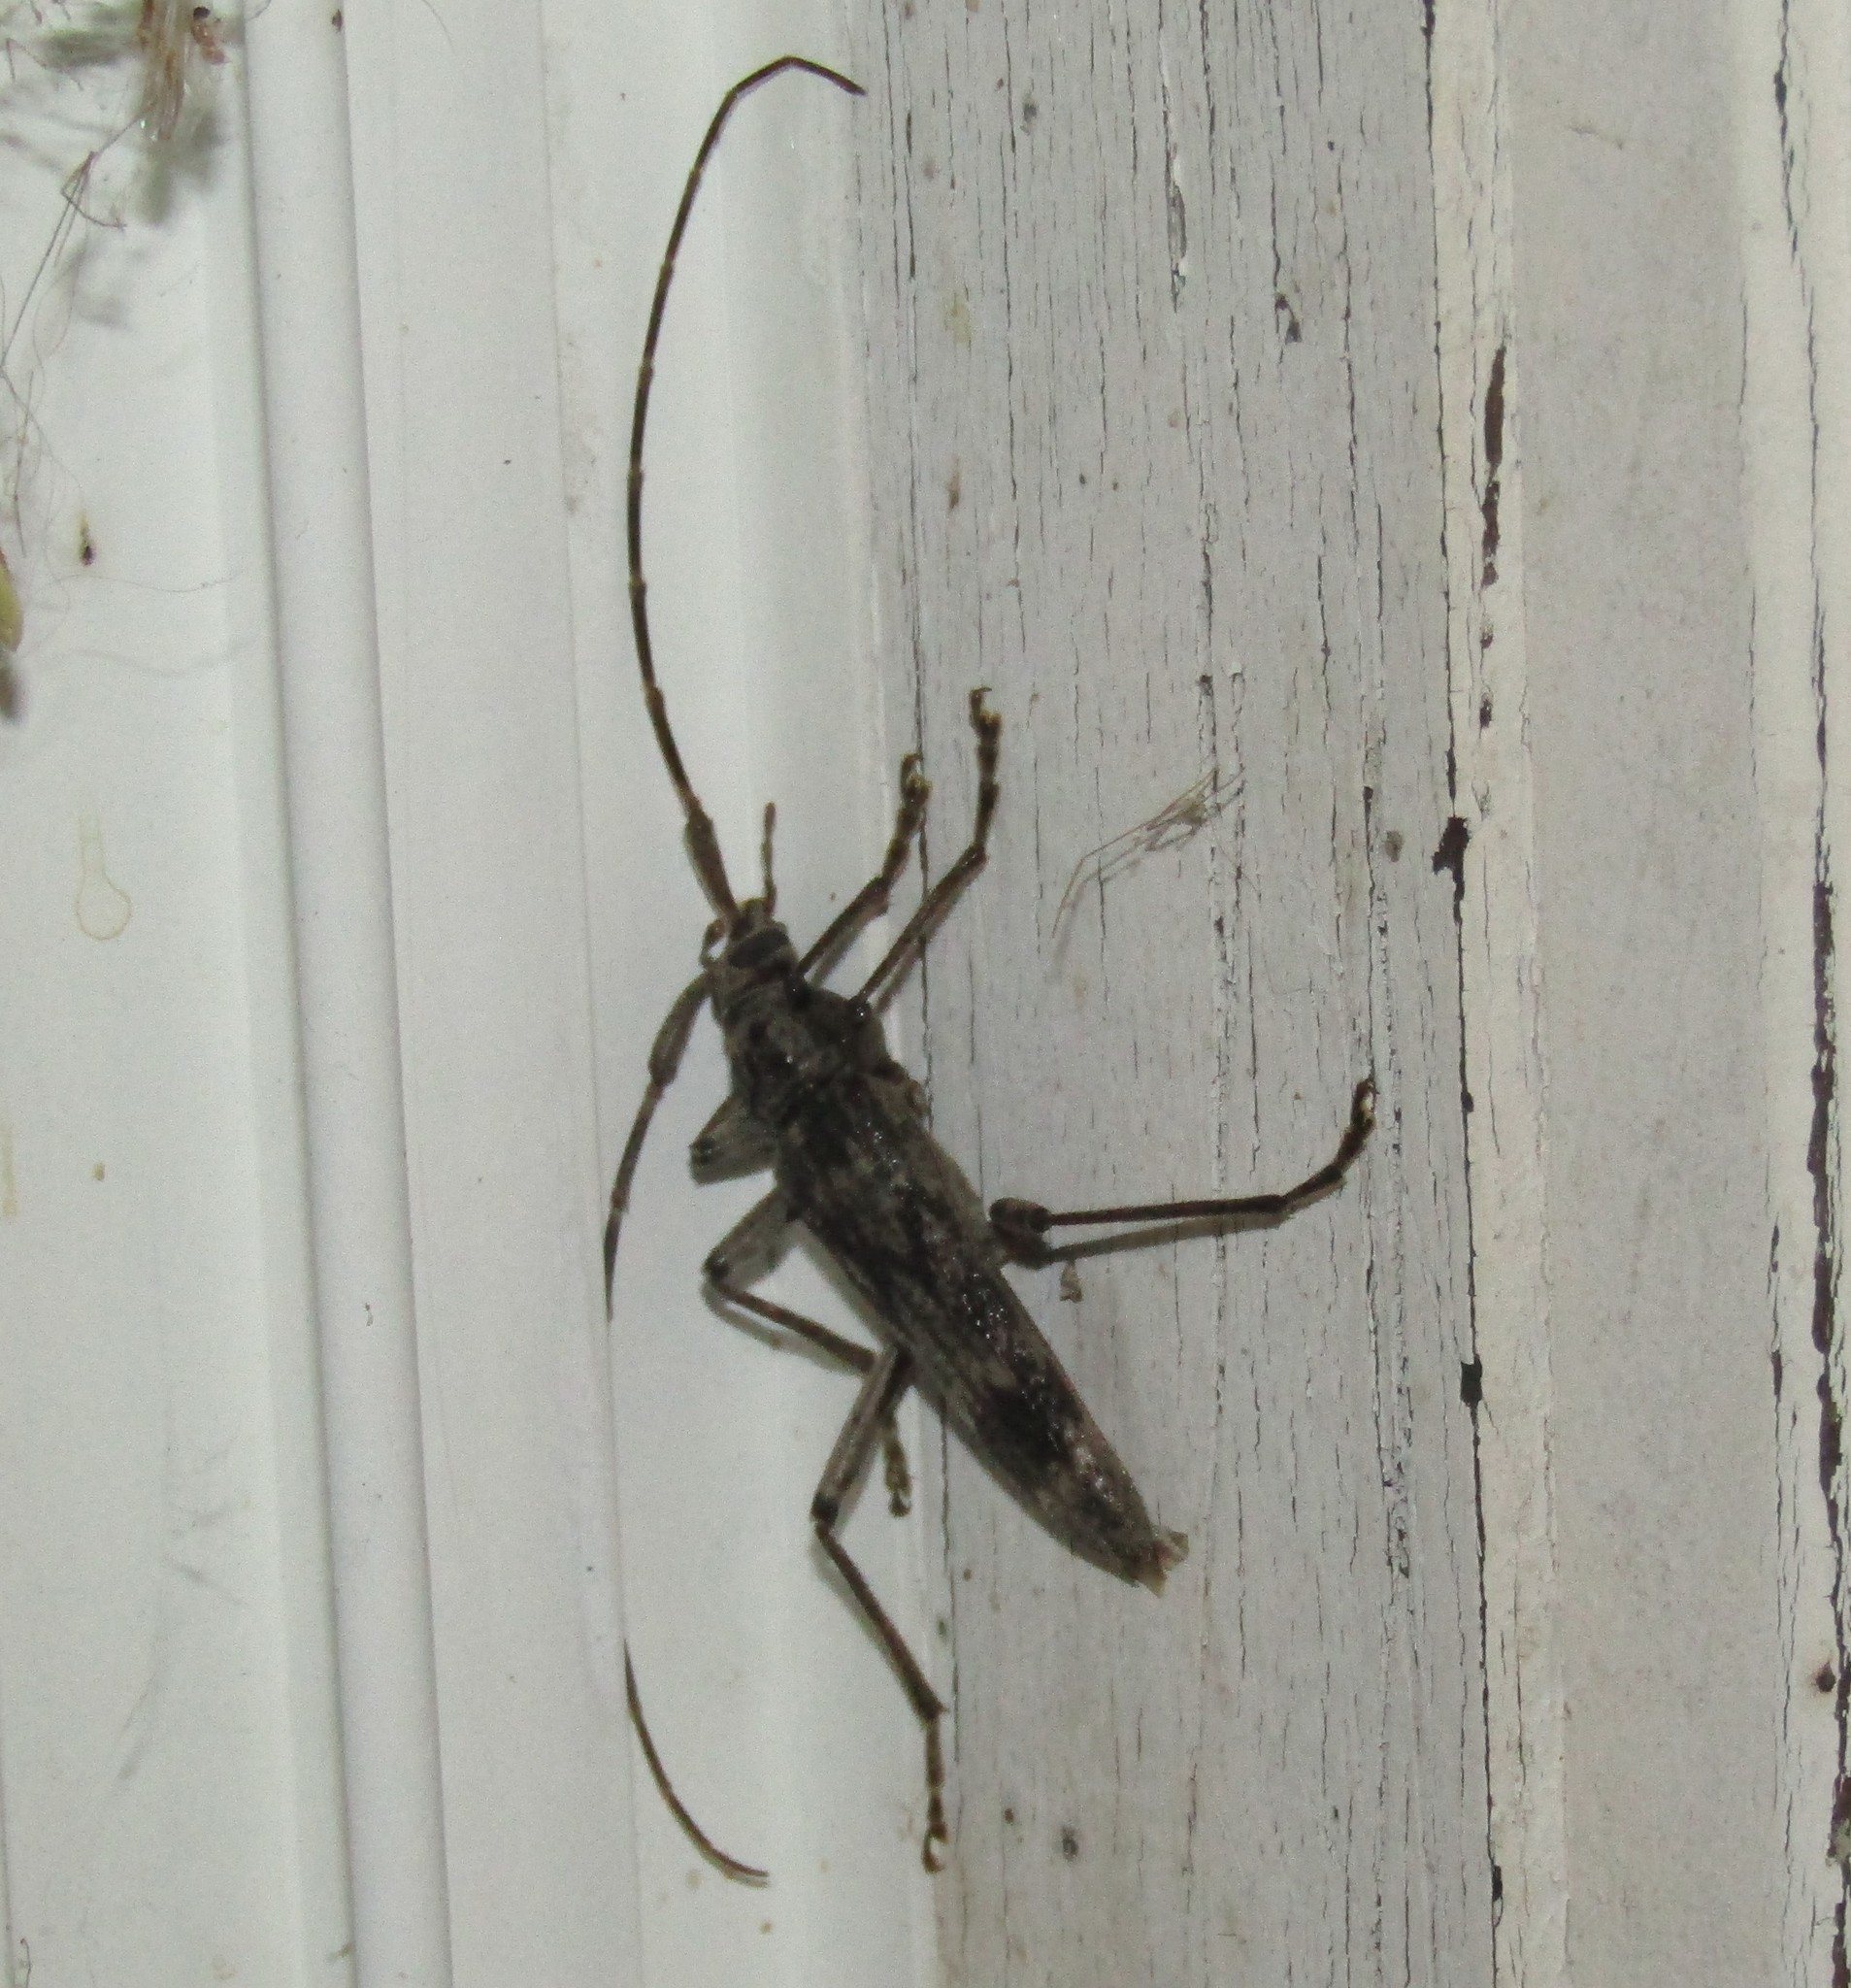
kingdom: Animalia
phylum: Arthropoda
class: Insecta
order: Coleoptera
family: Cerambycidae
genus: Elytrimitatrix
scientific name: Elytrimitatrix undata
